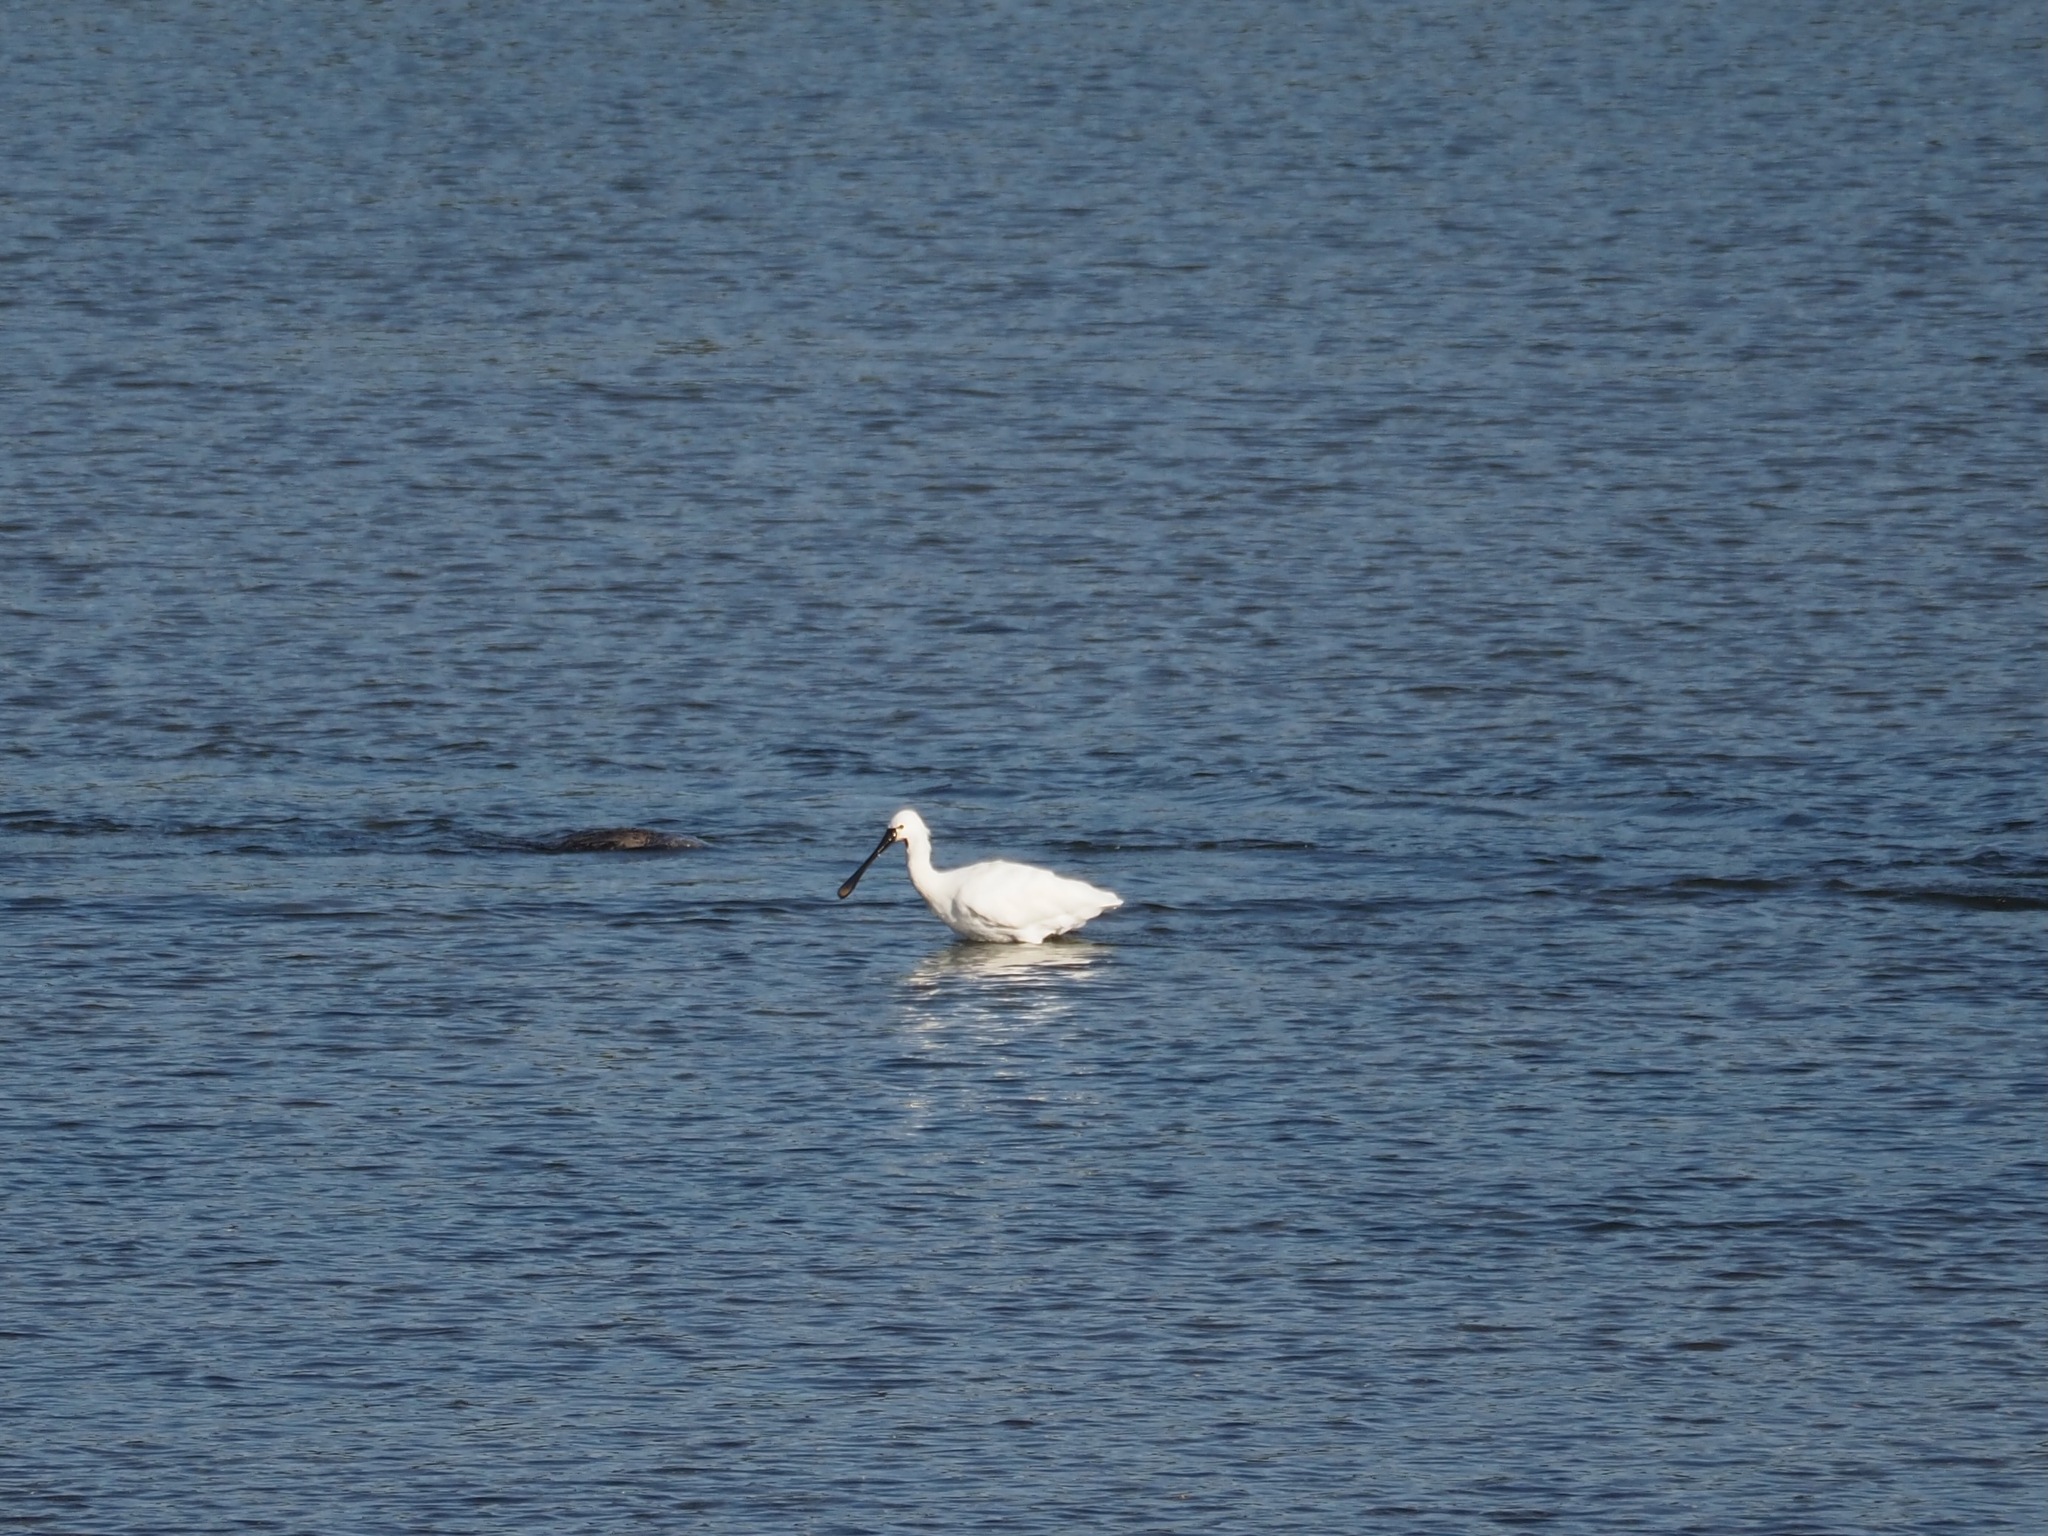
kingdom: Animalia
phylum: Chordata
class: Aves
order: Pelecaniformes
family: Threskiornithidae
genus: Platalea
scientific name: Platalea leucorodia
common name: Eurasian spoonbill
